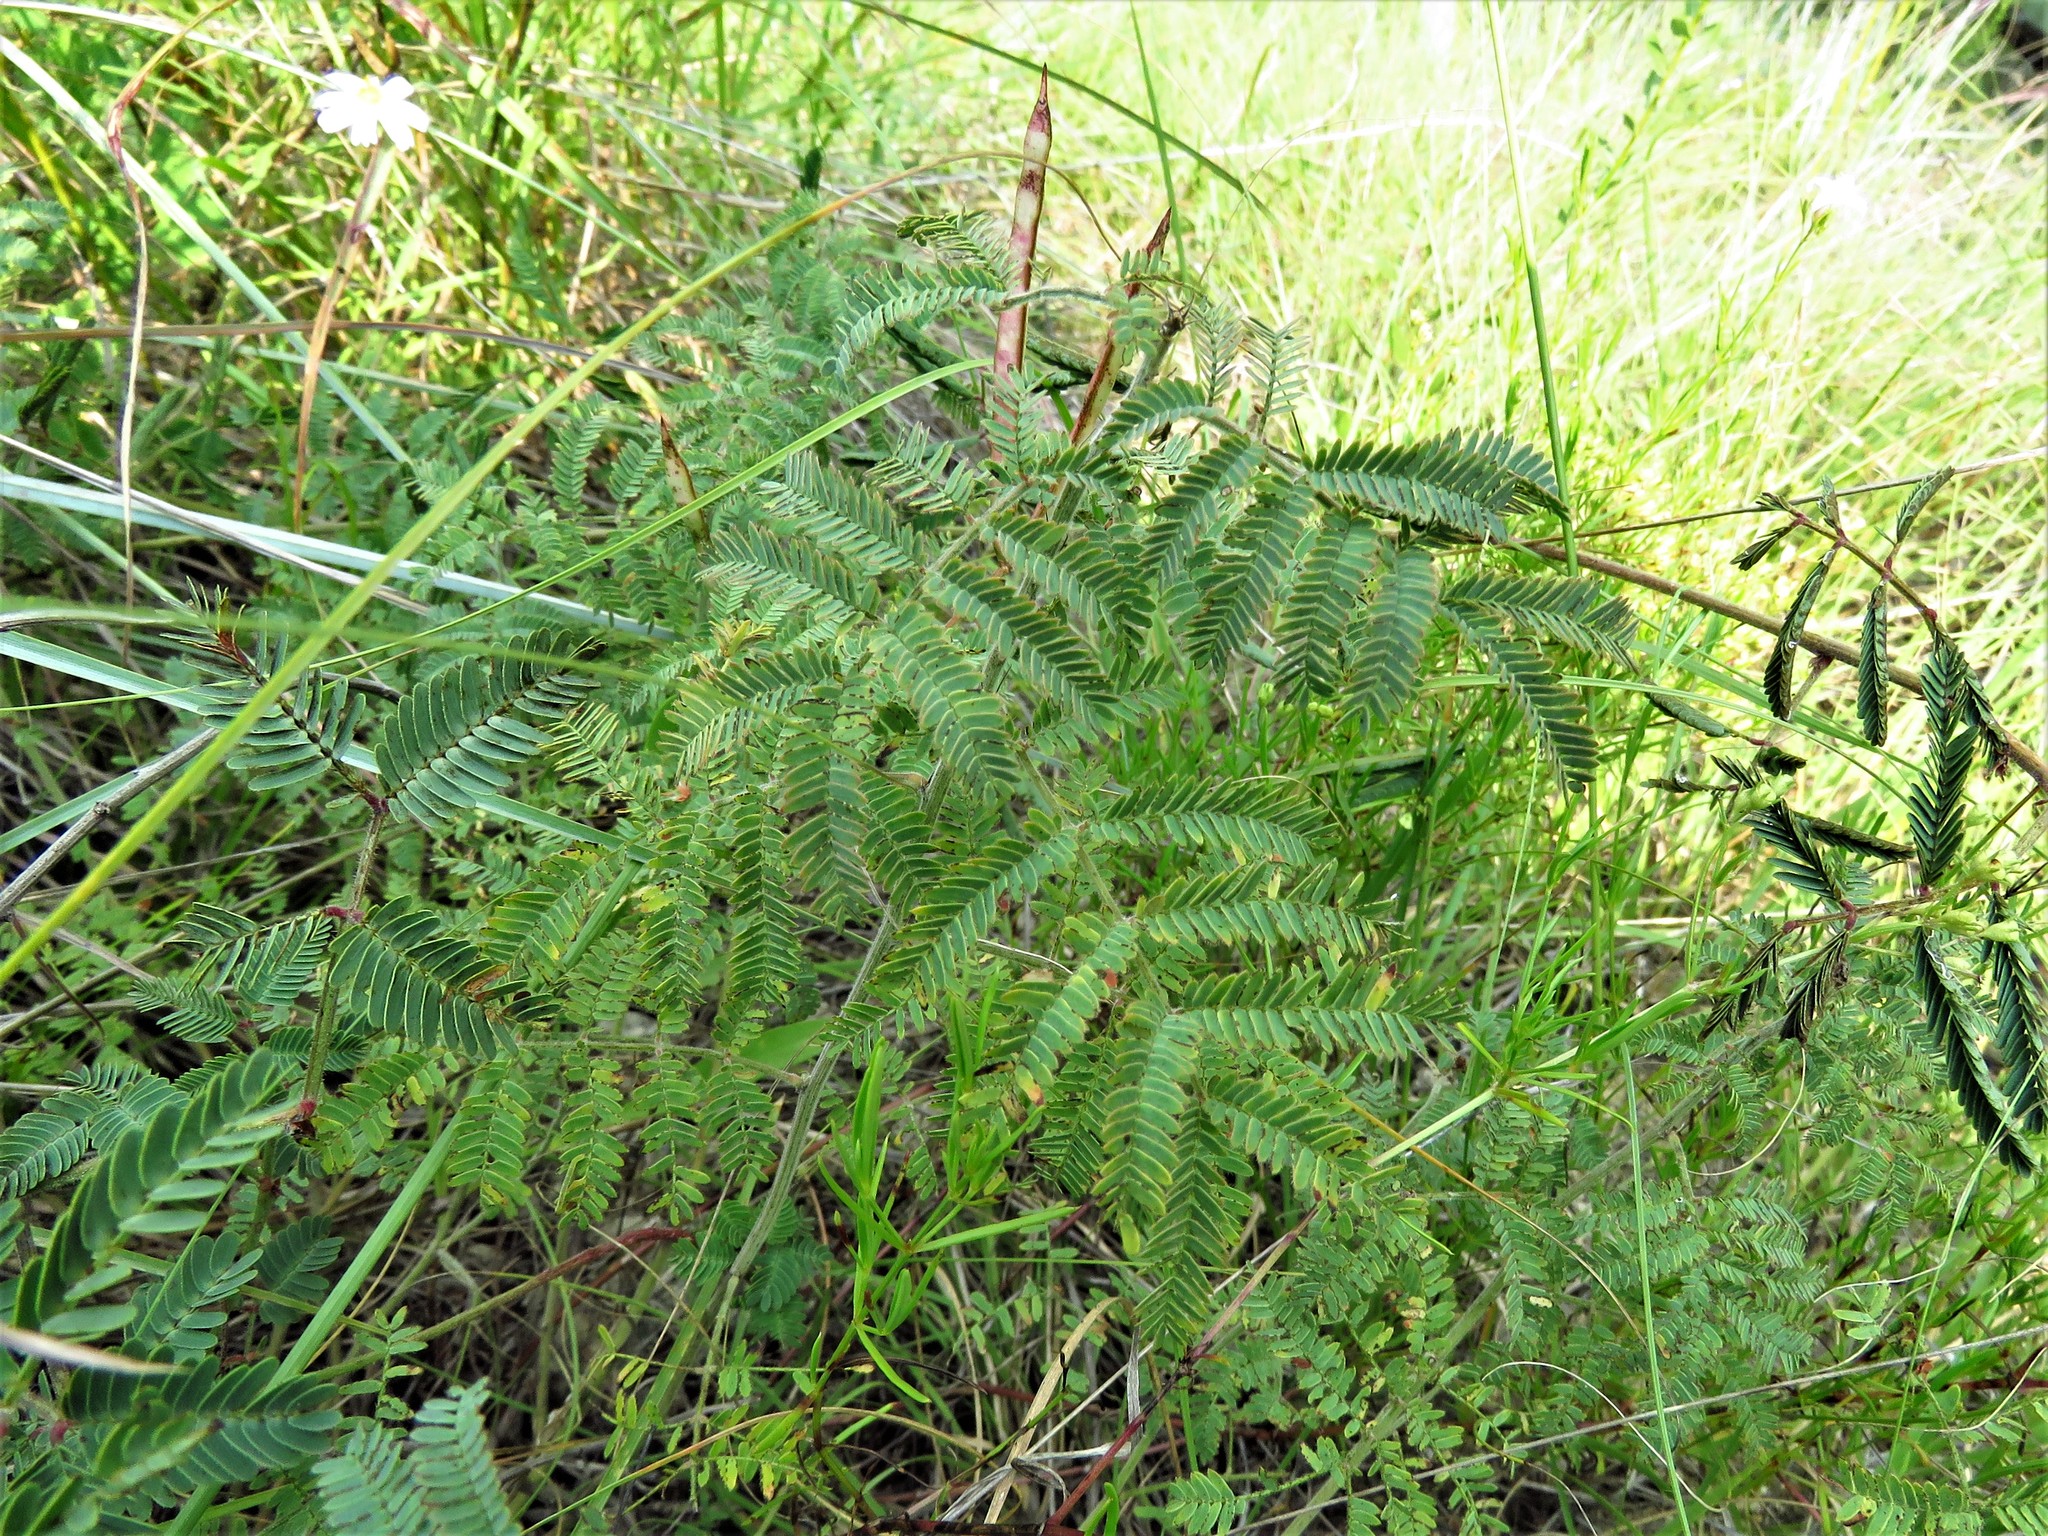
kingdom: Plantae
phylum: Tracheophyta
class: Magnoliopsida
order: Fabales
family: Fabaceae
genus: Neptunia
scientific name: Neptunia lutea
